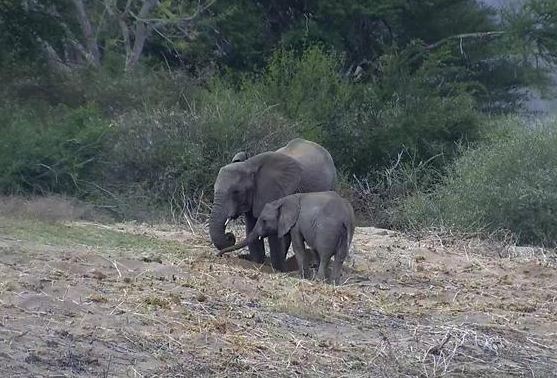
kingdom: Animalia
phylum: Chordata
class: Mammalia
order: Proboscidea
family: Elephantidae
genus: Loxodonta
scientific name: Loxodonta africana
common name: African elephant
